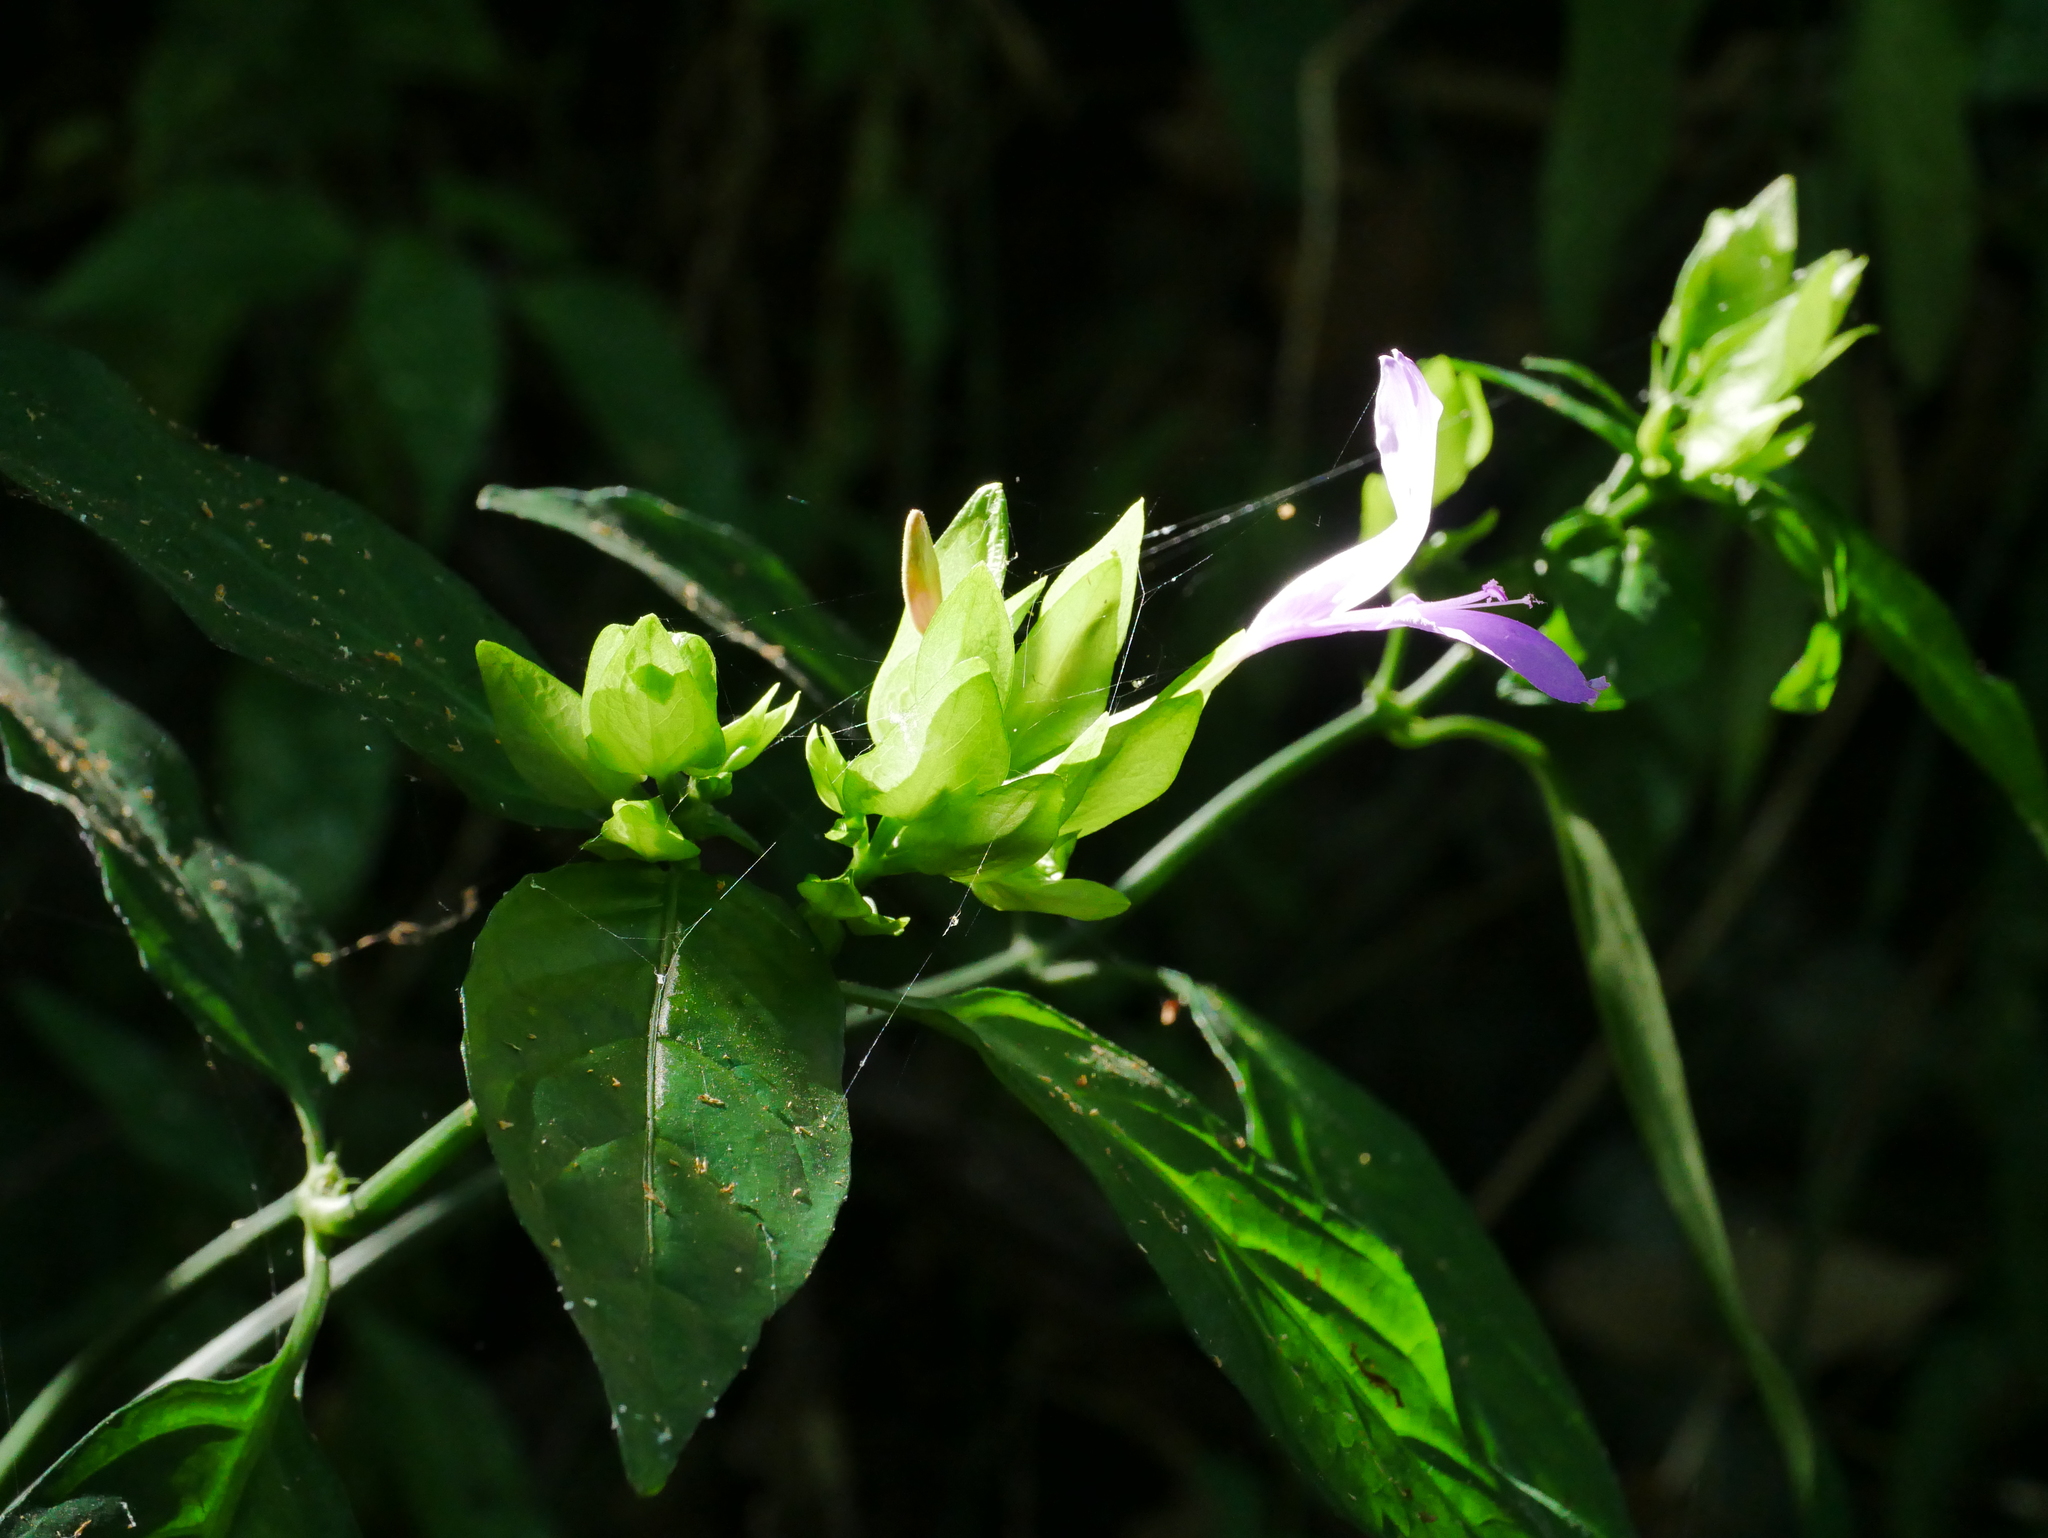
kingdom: Plantae
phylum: Tracheophyta
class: Magnoliopsida
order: Lamiales
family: Acanthaceae
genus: Dicliptera
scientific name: Dicliptera tinctoria
